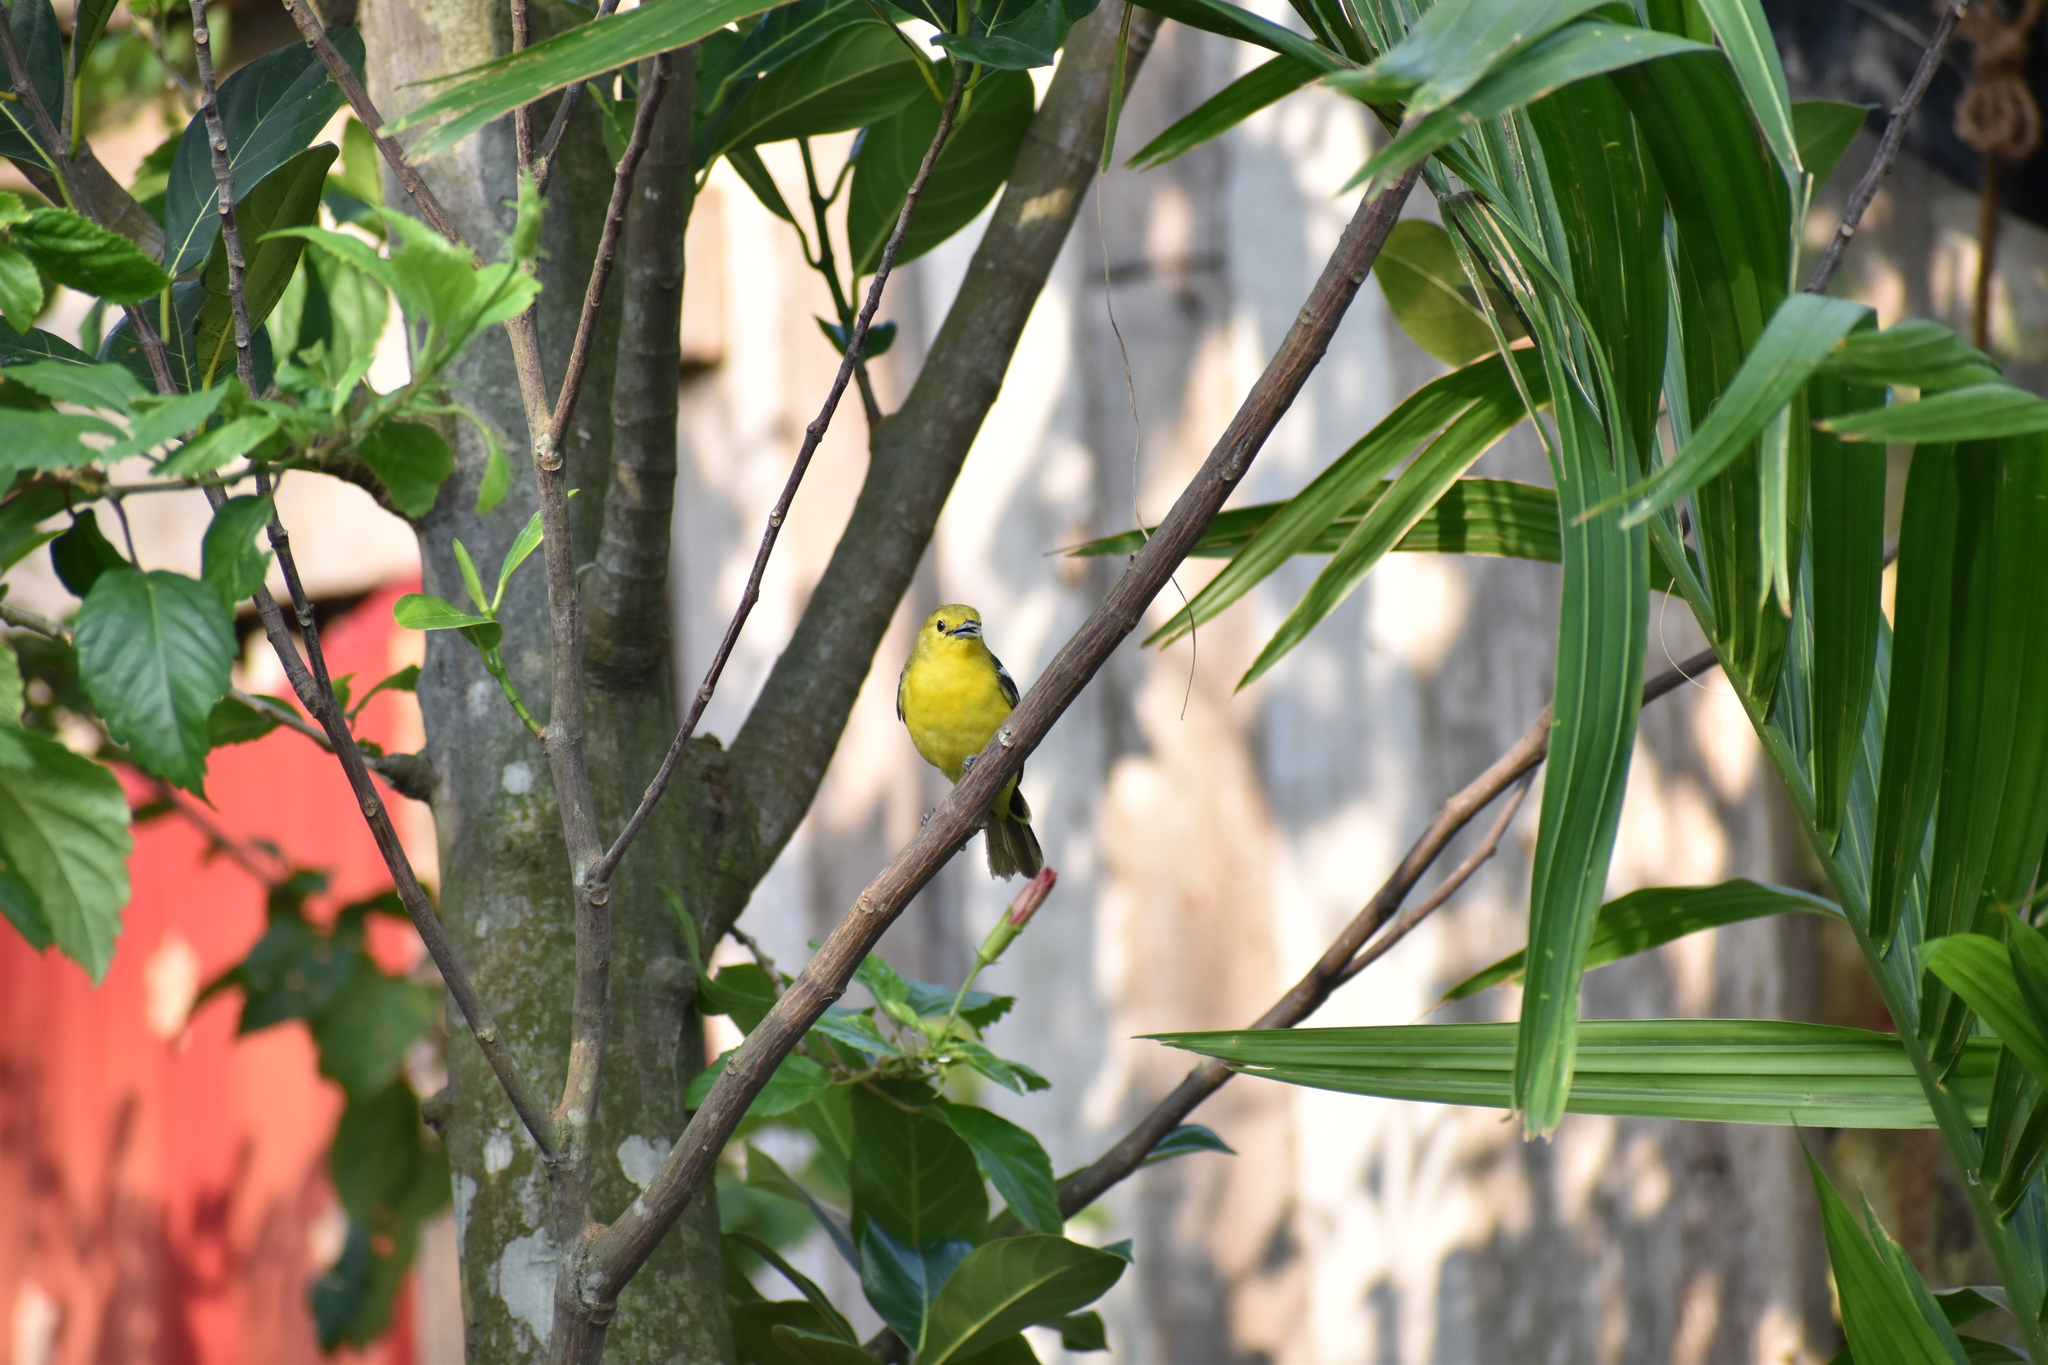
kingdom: Animalia
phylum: Chordata
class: Aves
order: Passeriformes
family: Aegithinidae
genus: Aegithina
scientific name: Aegithina tiphia
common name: Common iora
